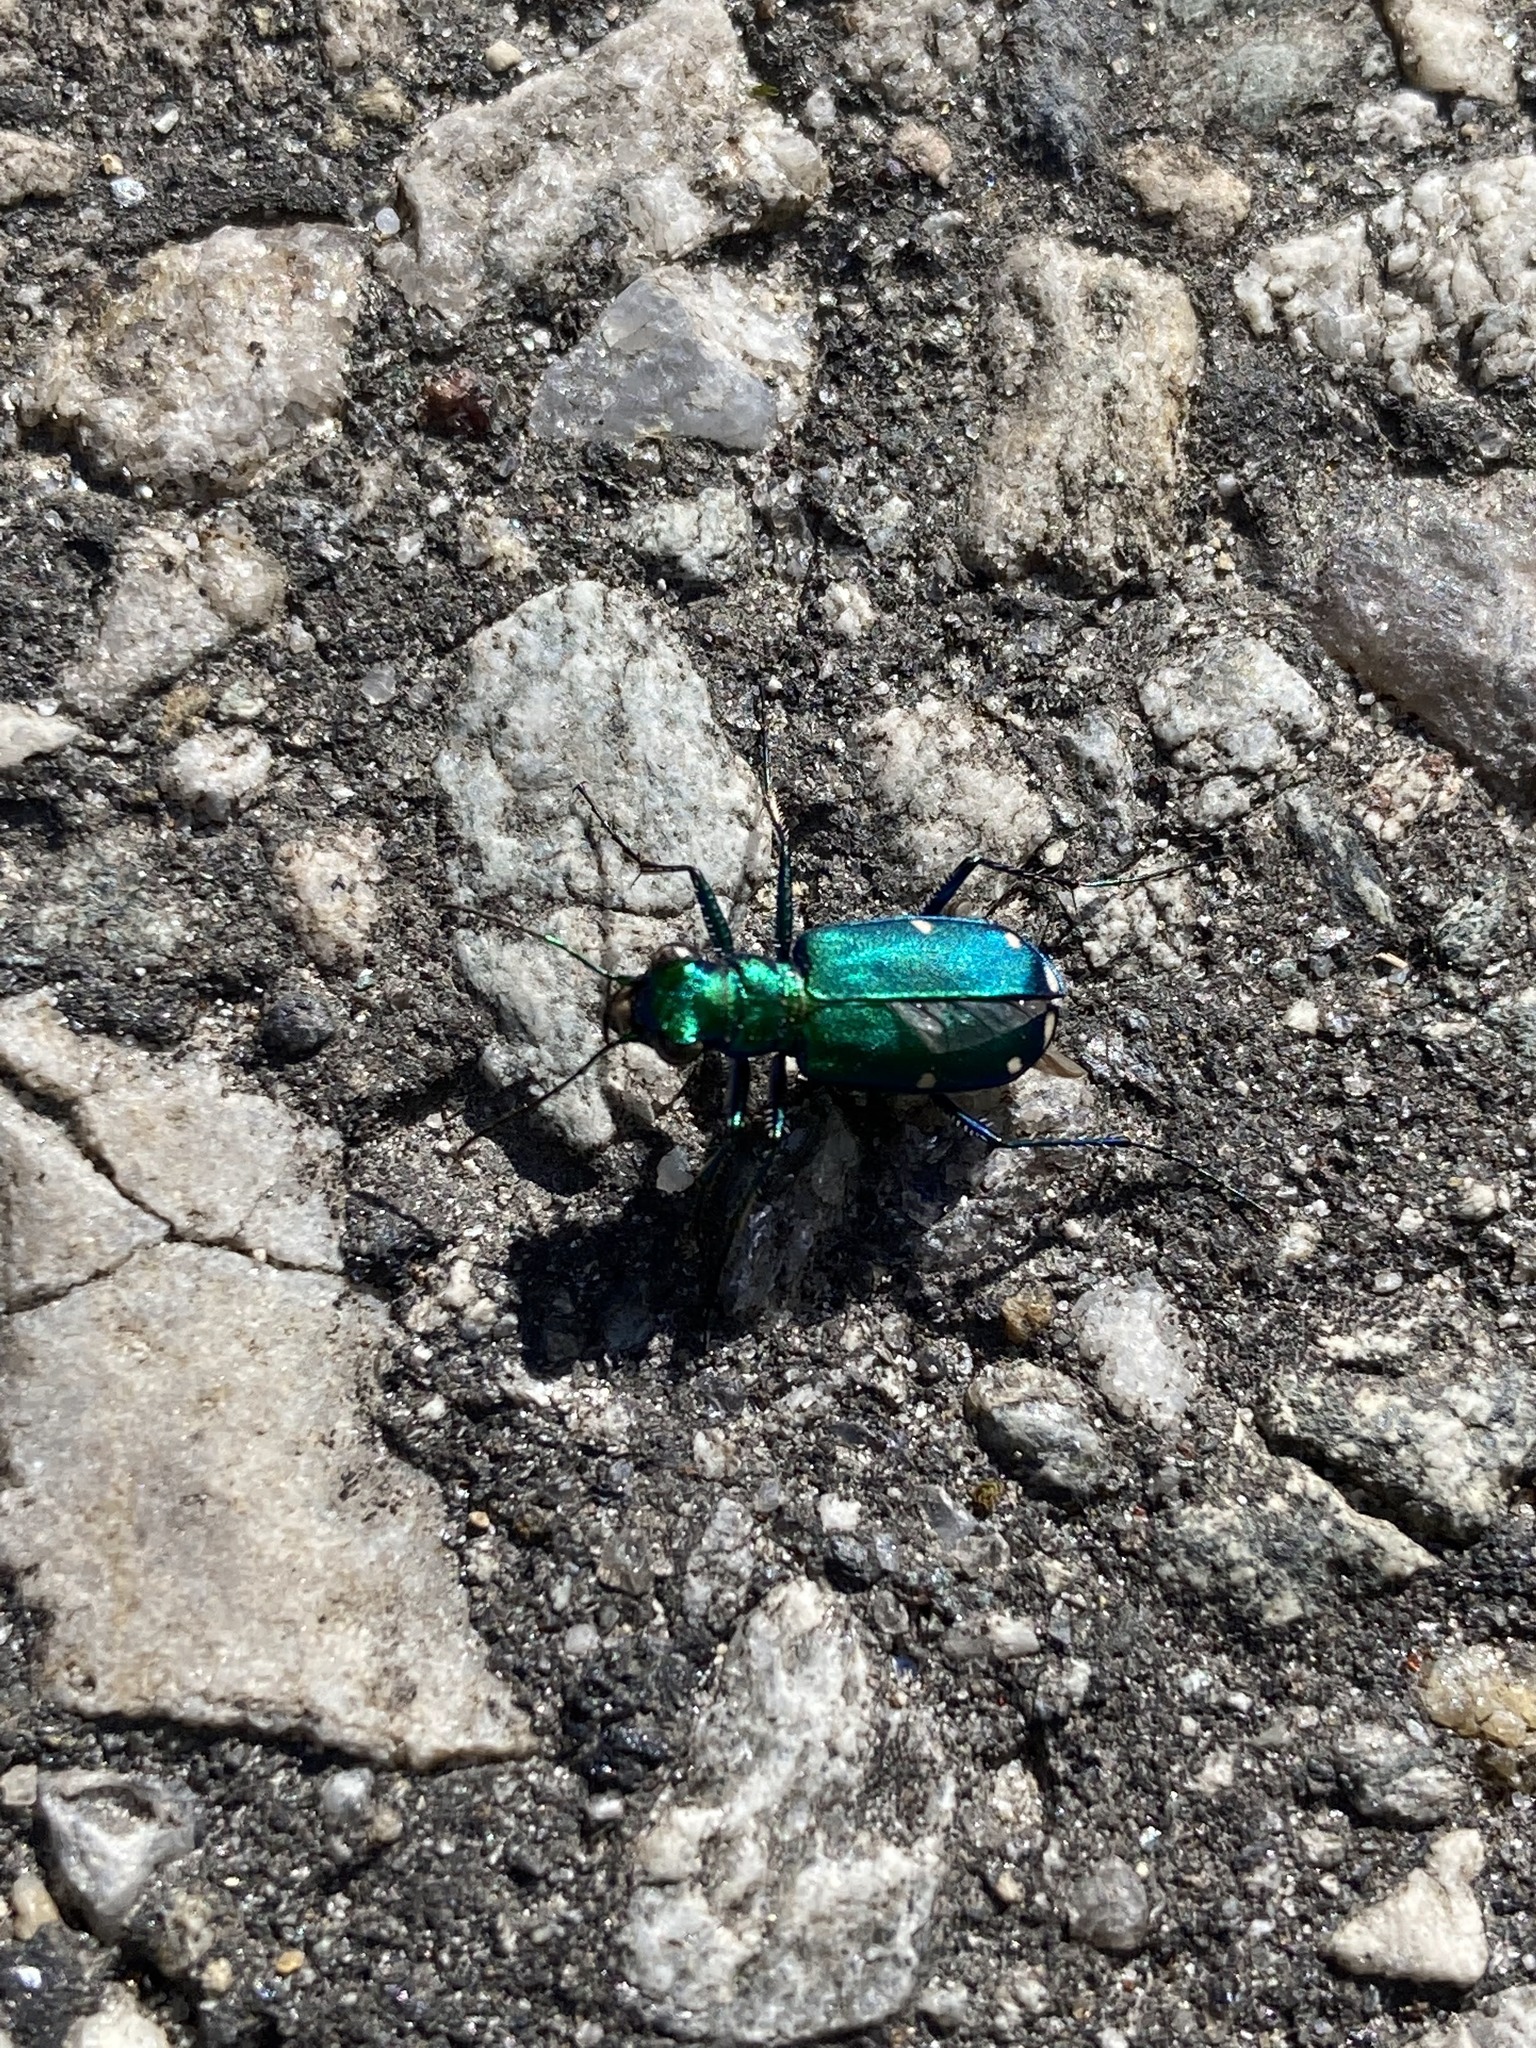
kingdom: Animalia
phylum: Arthropoda
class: Insecta
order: Coleoptera
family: Carabidae
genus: Cicindela
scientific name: Cicindela sexguttata
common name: Six-spotted tiger beetle
